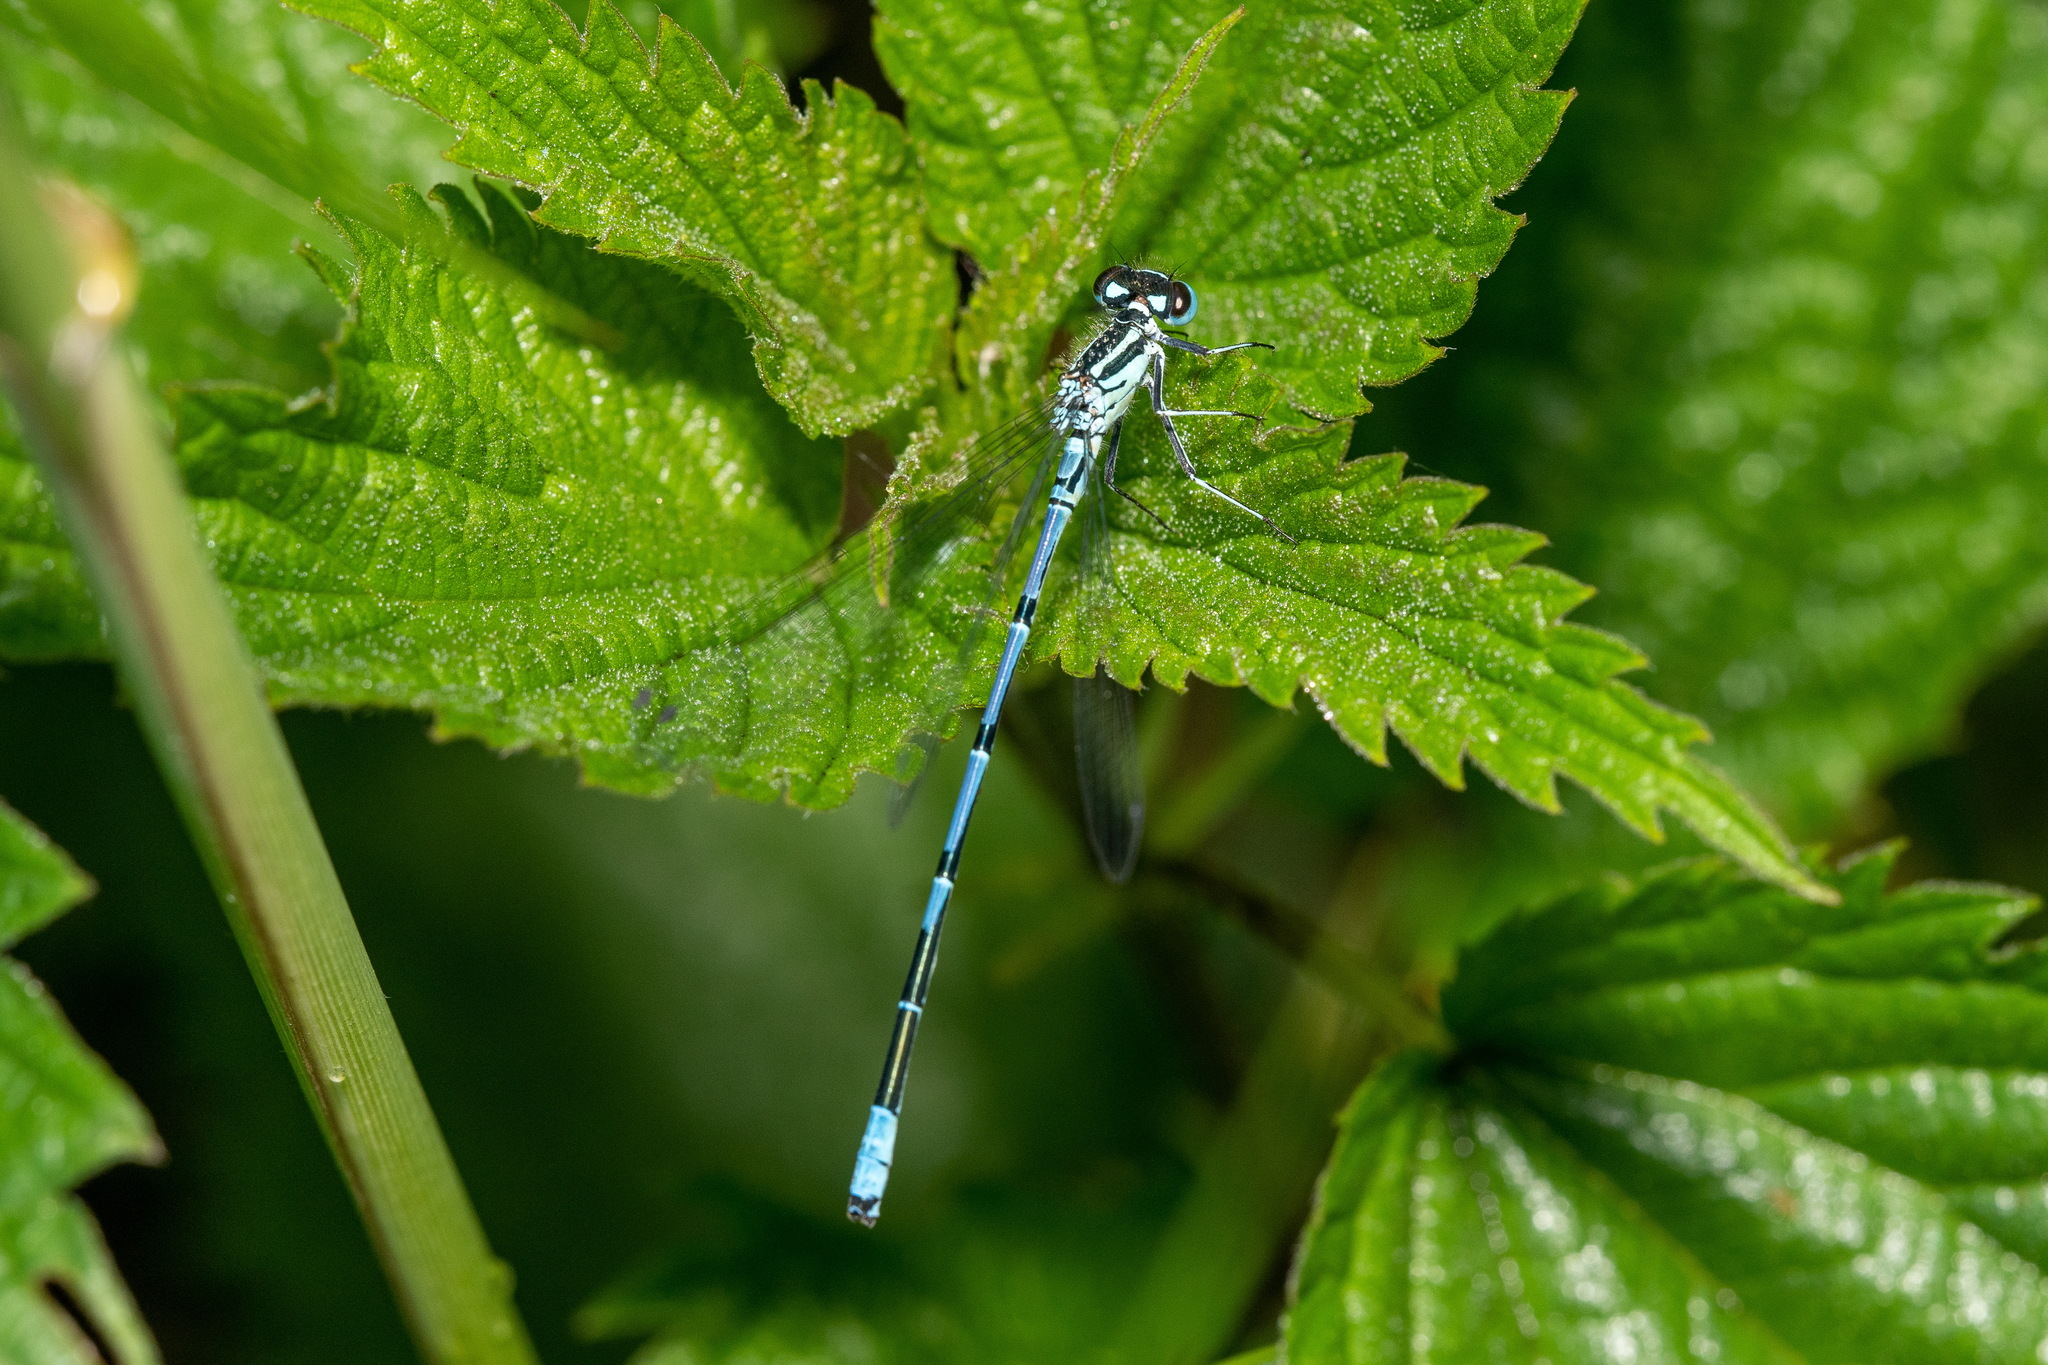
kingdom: Animalia
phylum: Arthropoda
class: Insecta
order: Odonata
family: Coenagrionidae
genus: Coenagrion
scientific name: Coenagrion puella
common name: Azure damselfly
